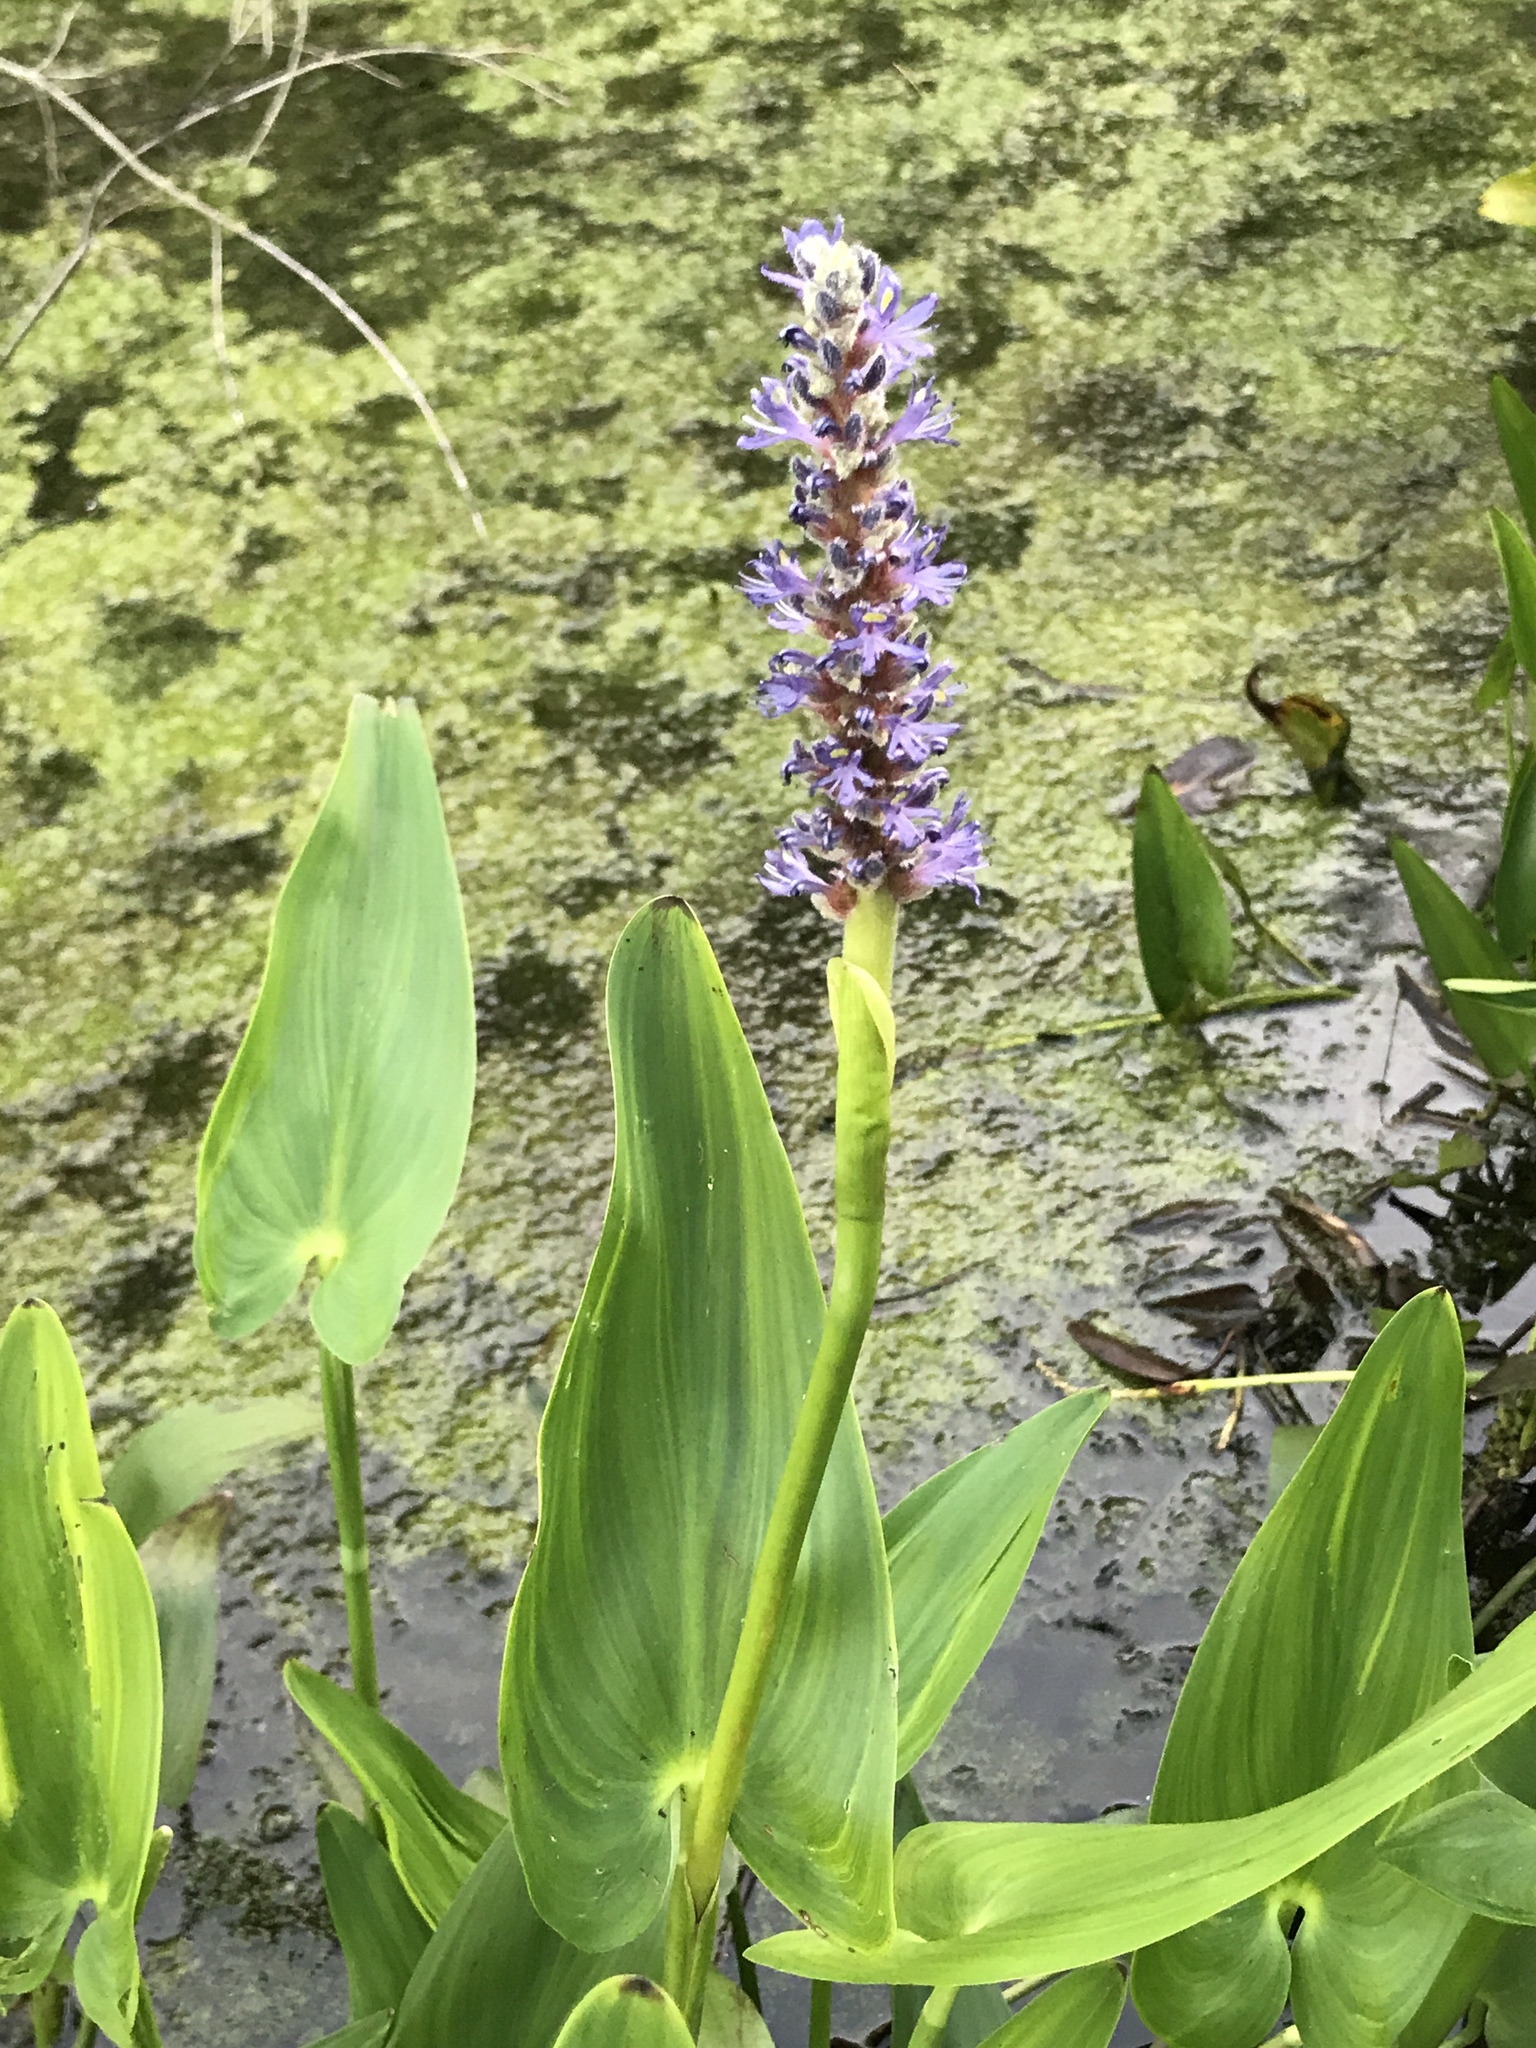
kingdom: Plantae
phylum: Tracheophyta
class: Liliopsida
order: Commelinales
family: Pontederiaceae
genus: Pontederia
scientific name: Pontederia cordata
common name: Pickerelweed
